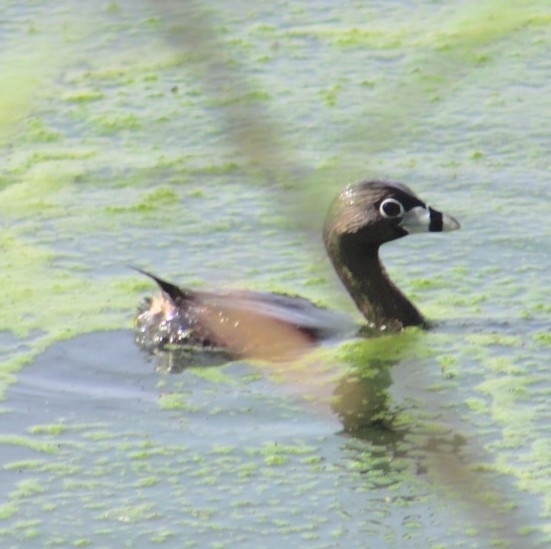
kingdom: Animalia
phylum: Chordata
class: Aves
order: Podicipediformes
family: Podicipedidae
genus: Podilymbus
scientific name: Podilymbus podiceps
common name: Pied-billed grebe
